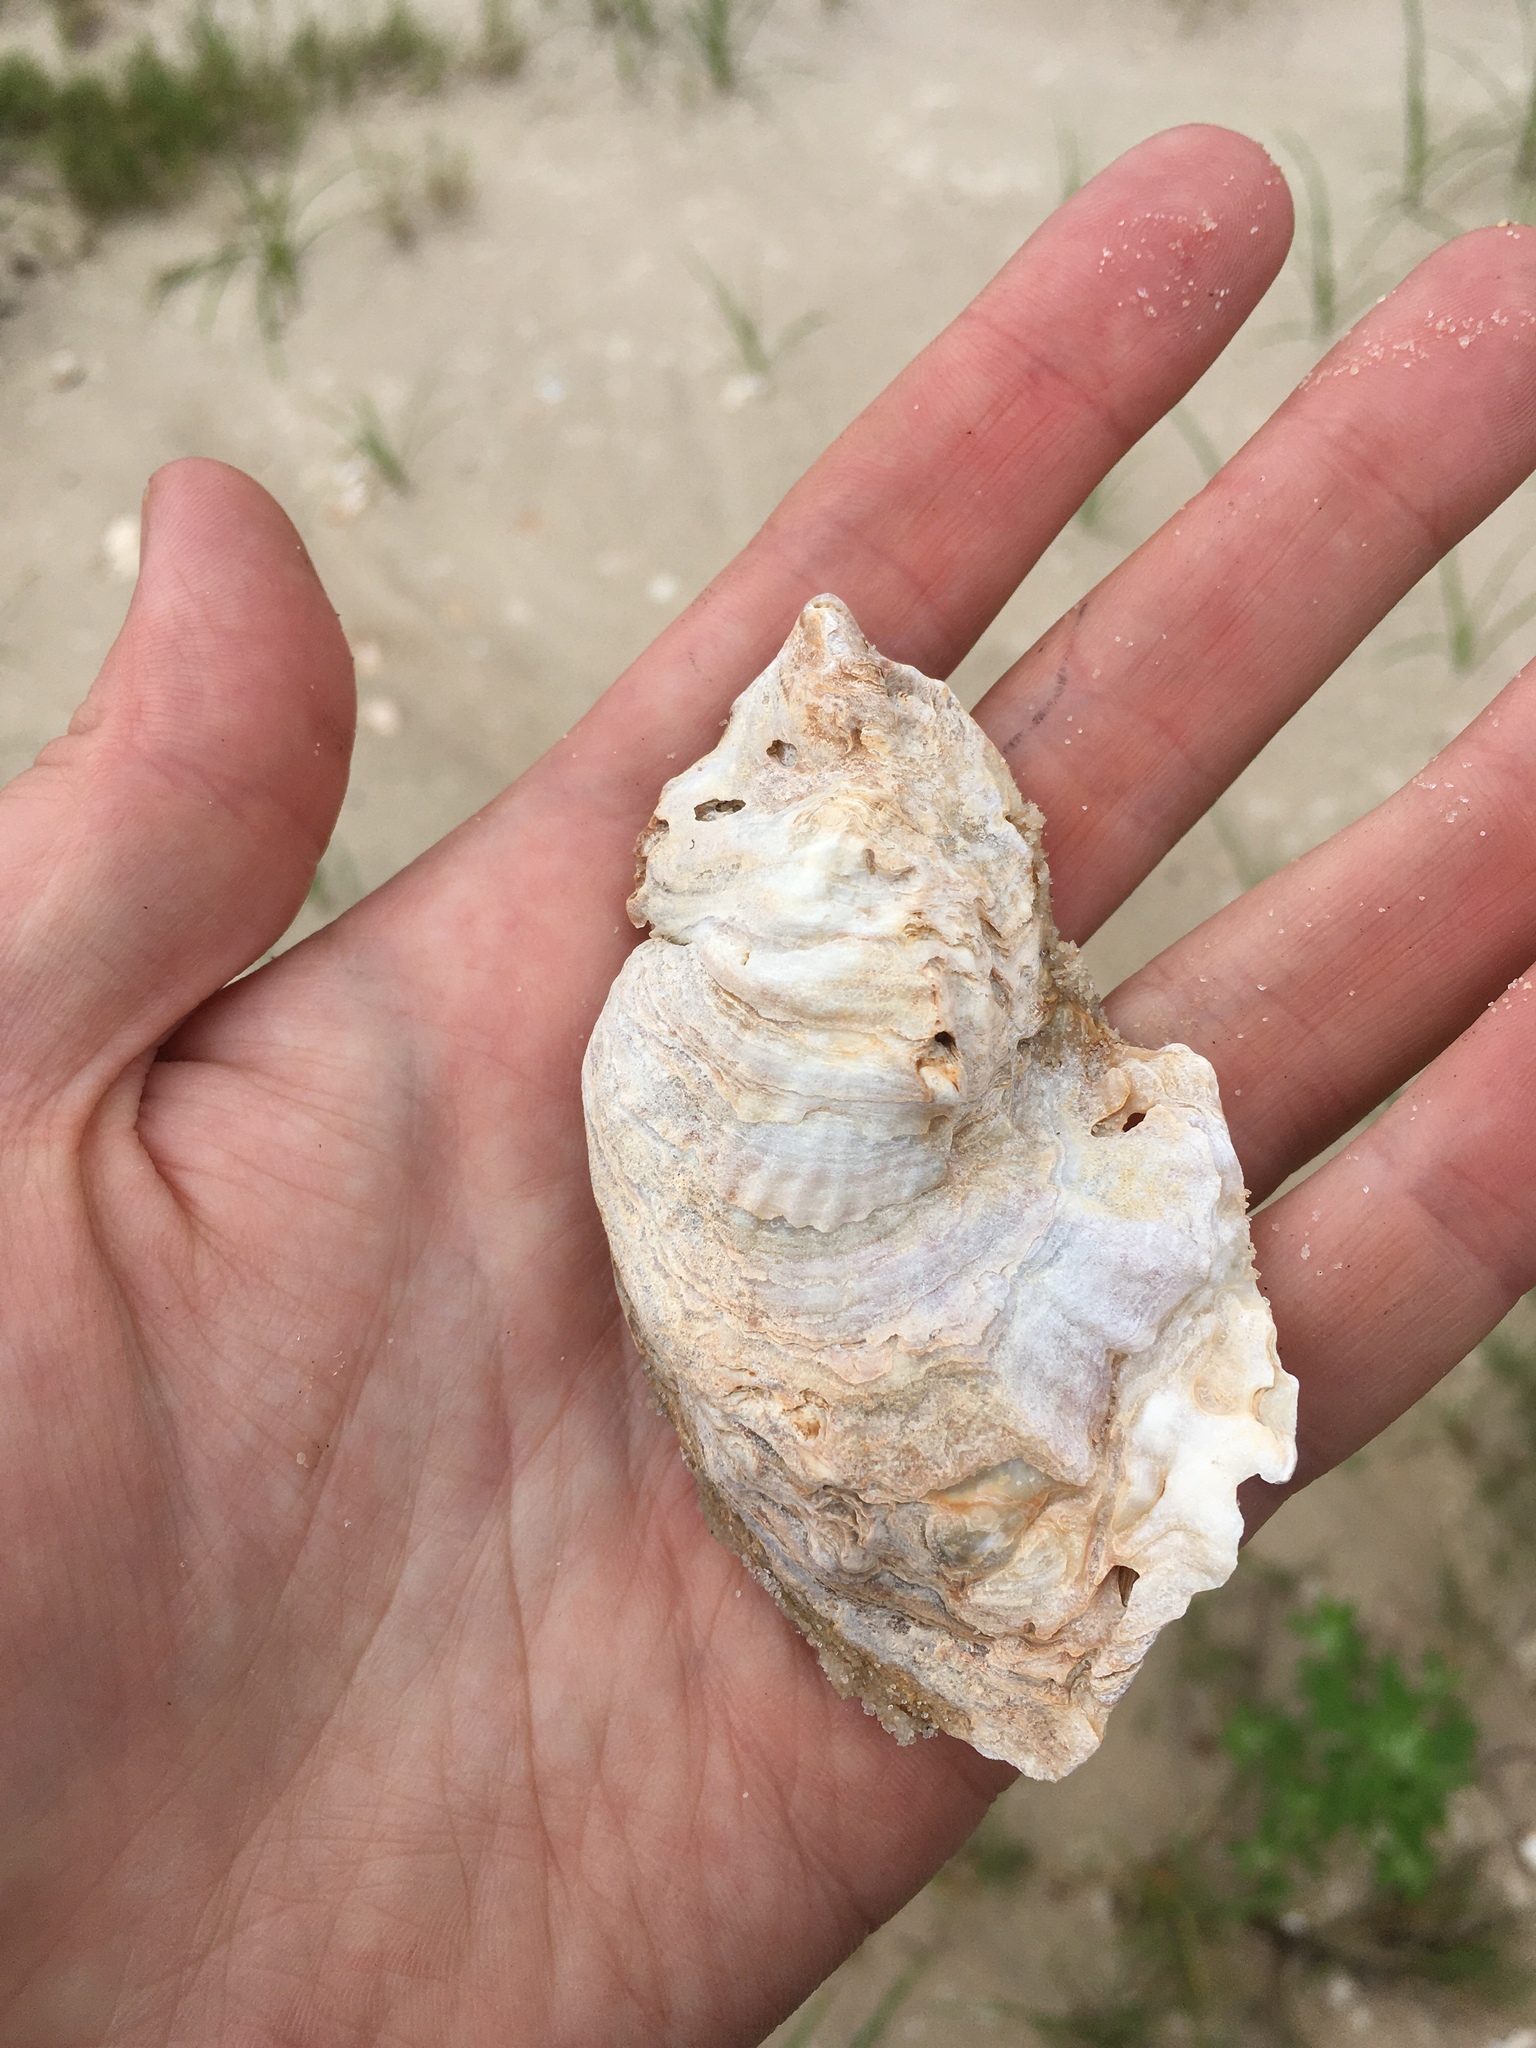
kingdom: Animalia
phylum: Mollusca
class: Bivalvia
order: Ostreida
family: Ostreidae
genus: Crassostrea
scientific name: Crassostrea virginica
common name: American oyster
